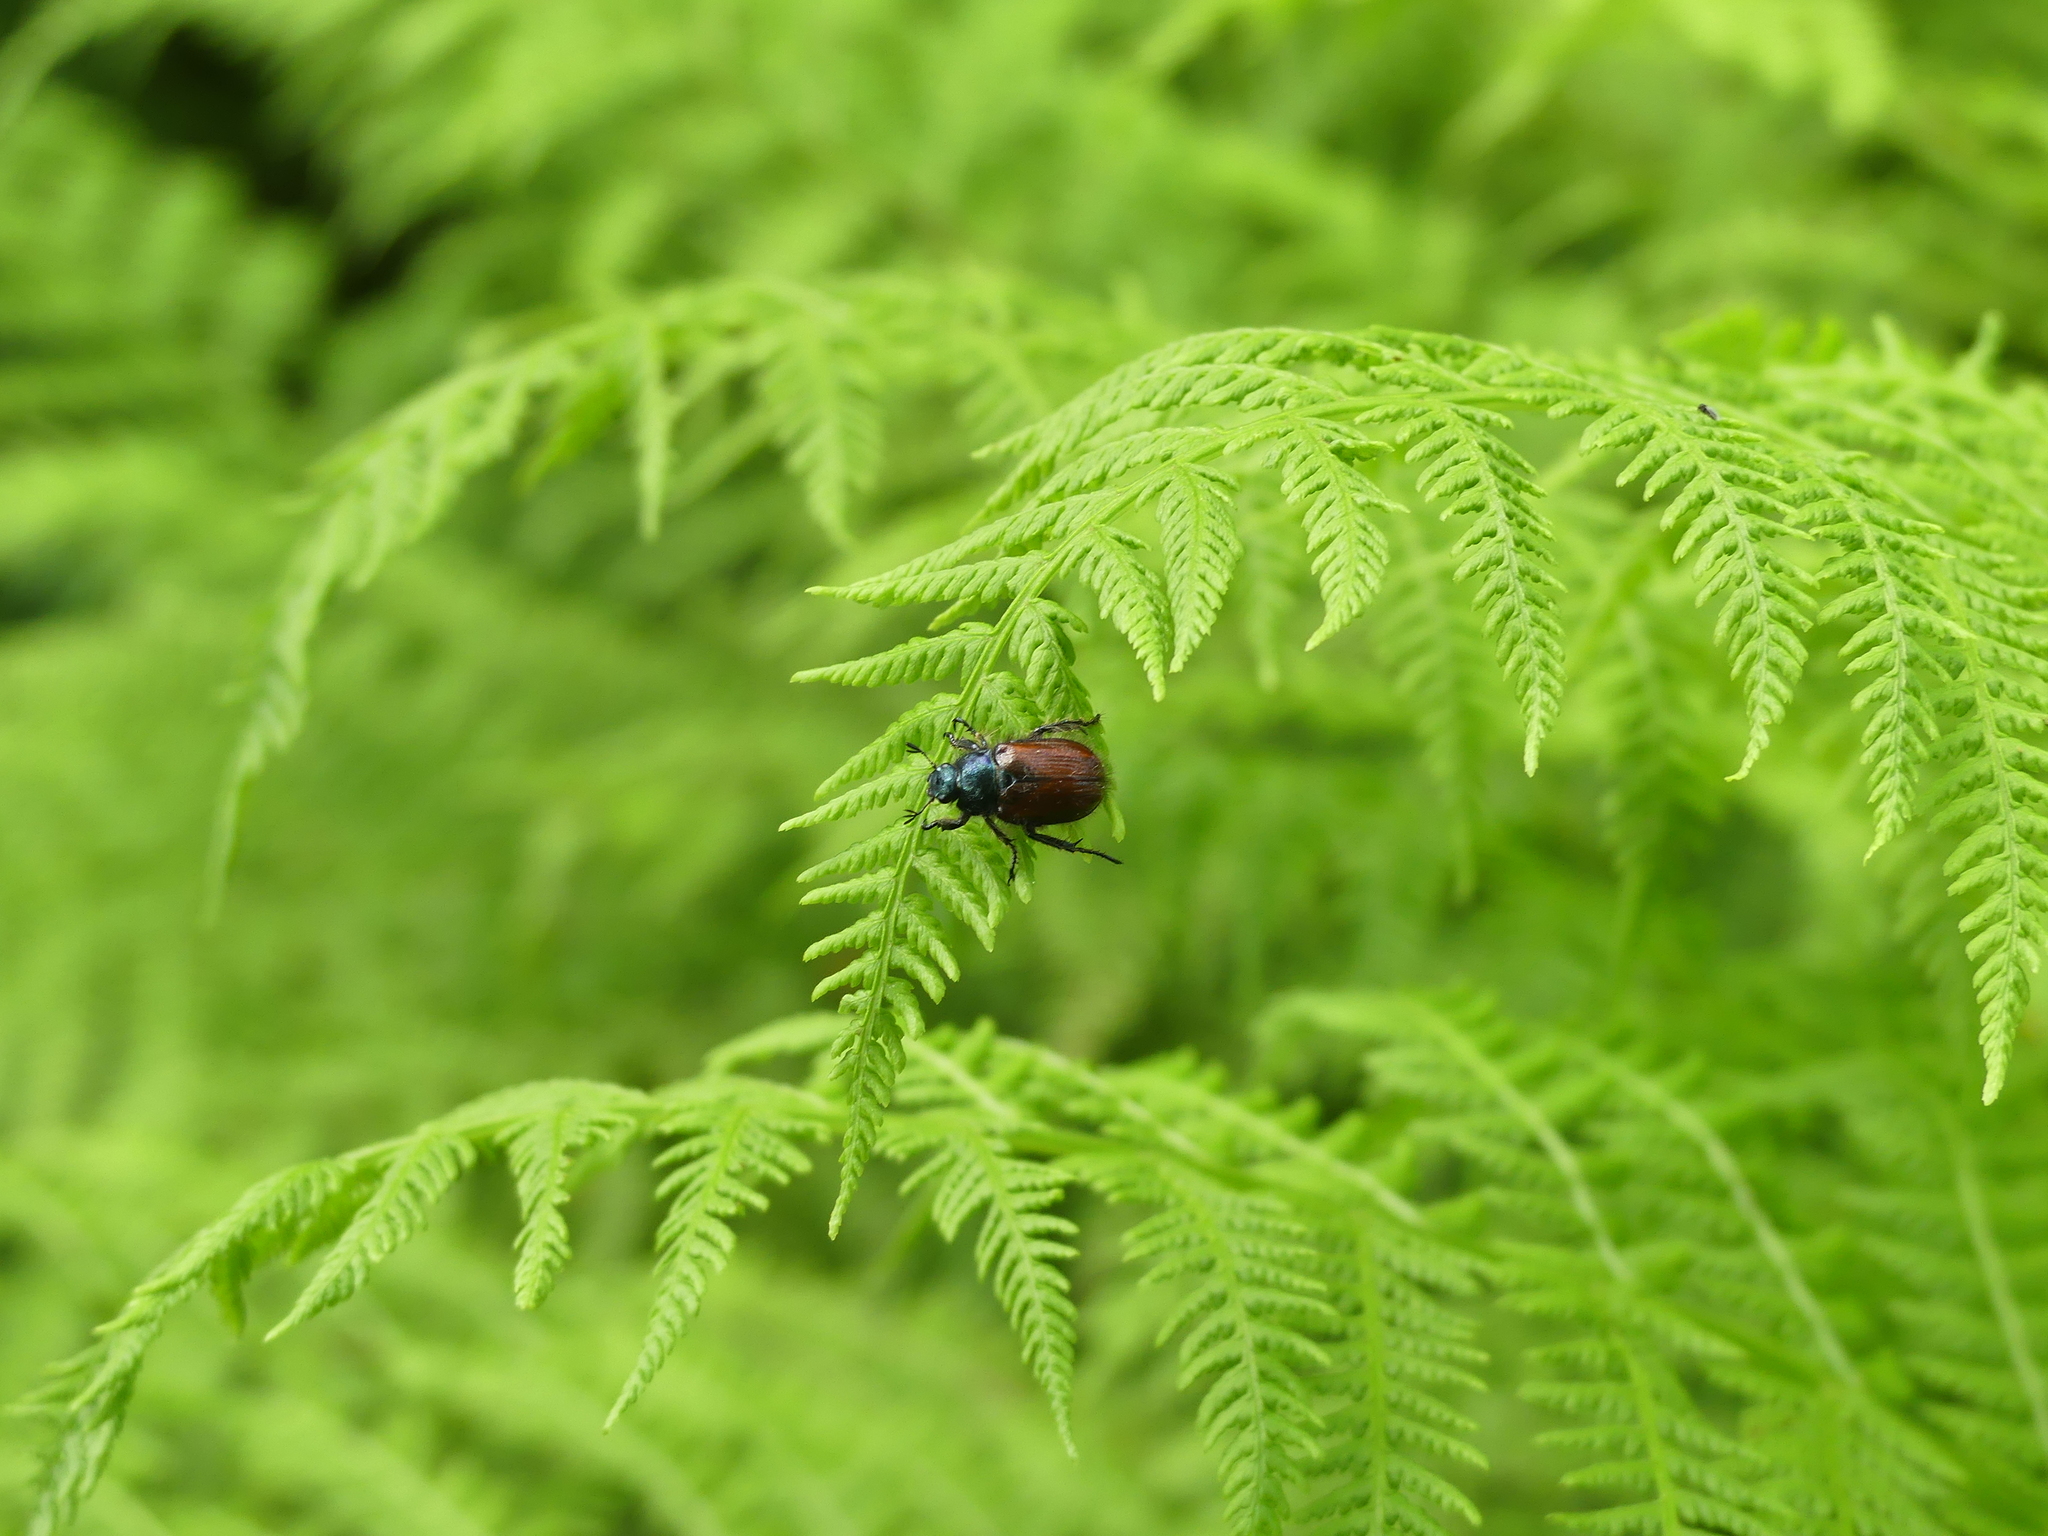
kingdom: Animalia
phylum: Arthropoda
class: Insecta
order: Coleoptera
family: Scarabaeidae
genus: Phyllopertha
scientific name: Phyllopertha horticola
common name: Garden chafer
